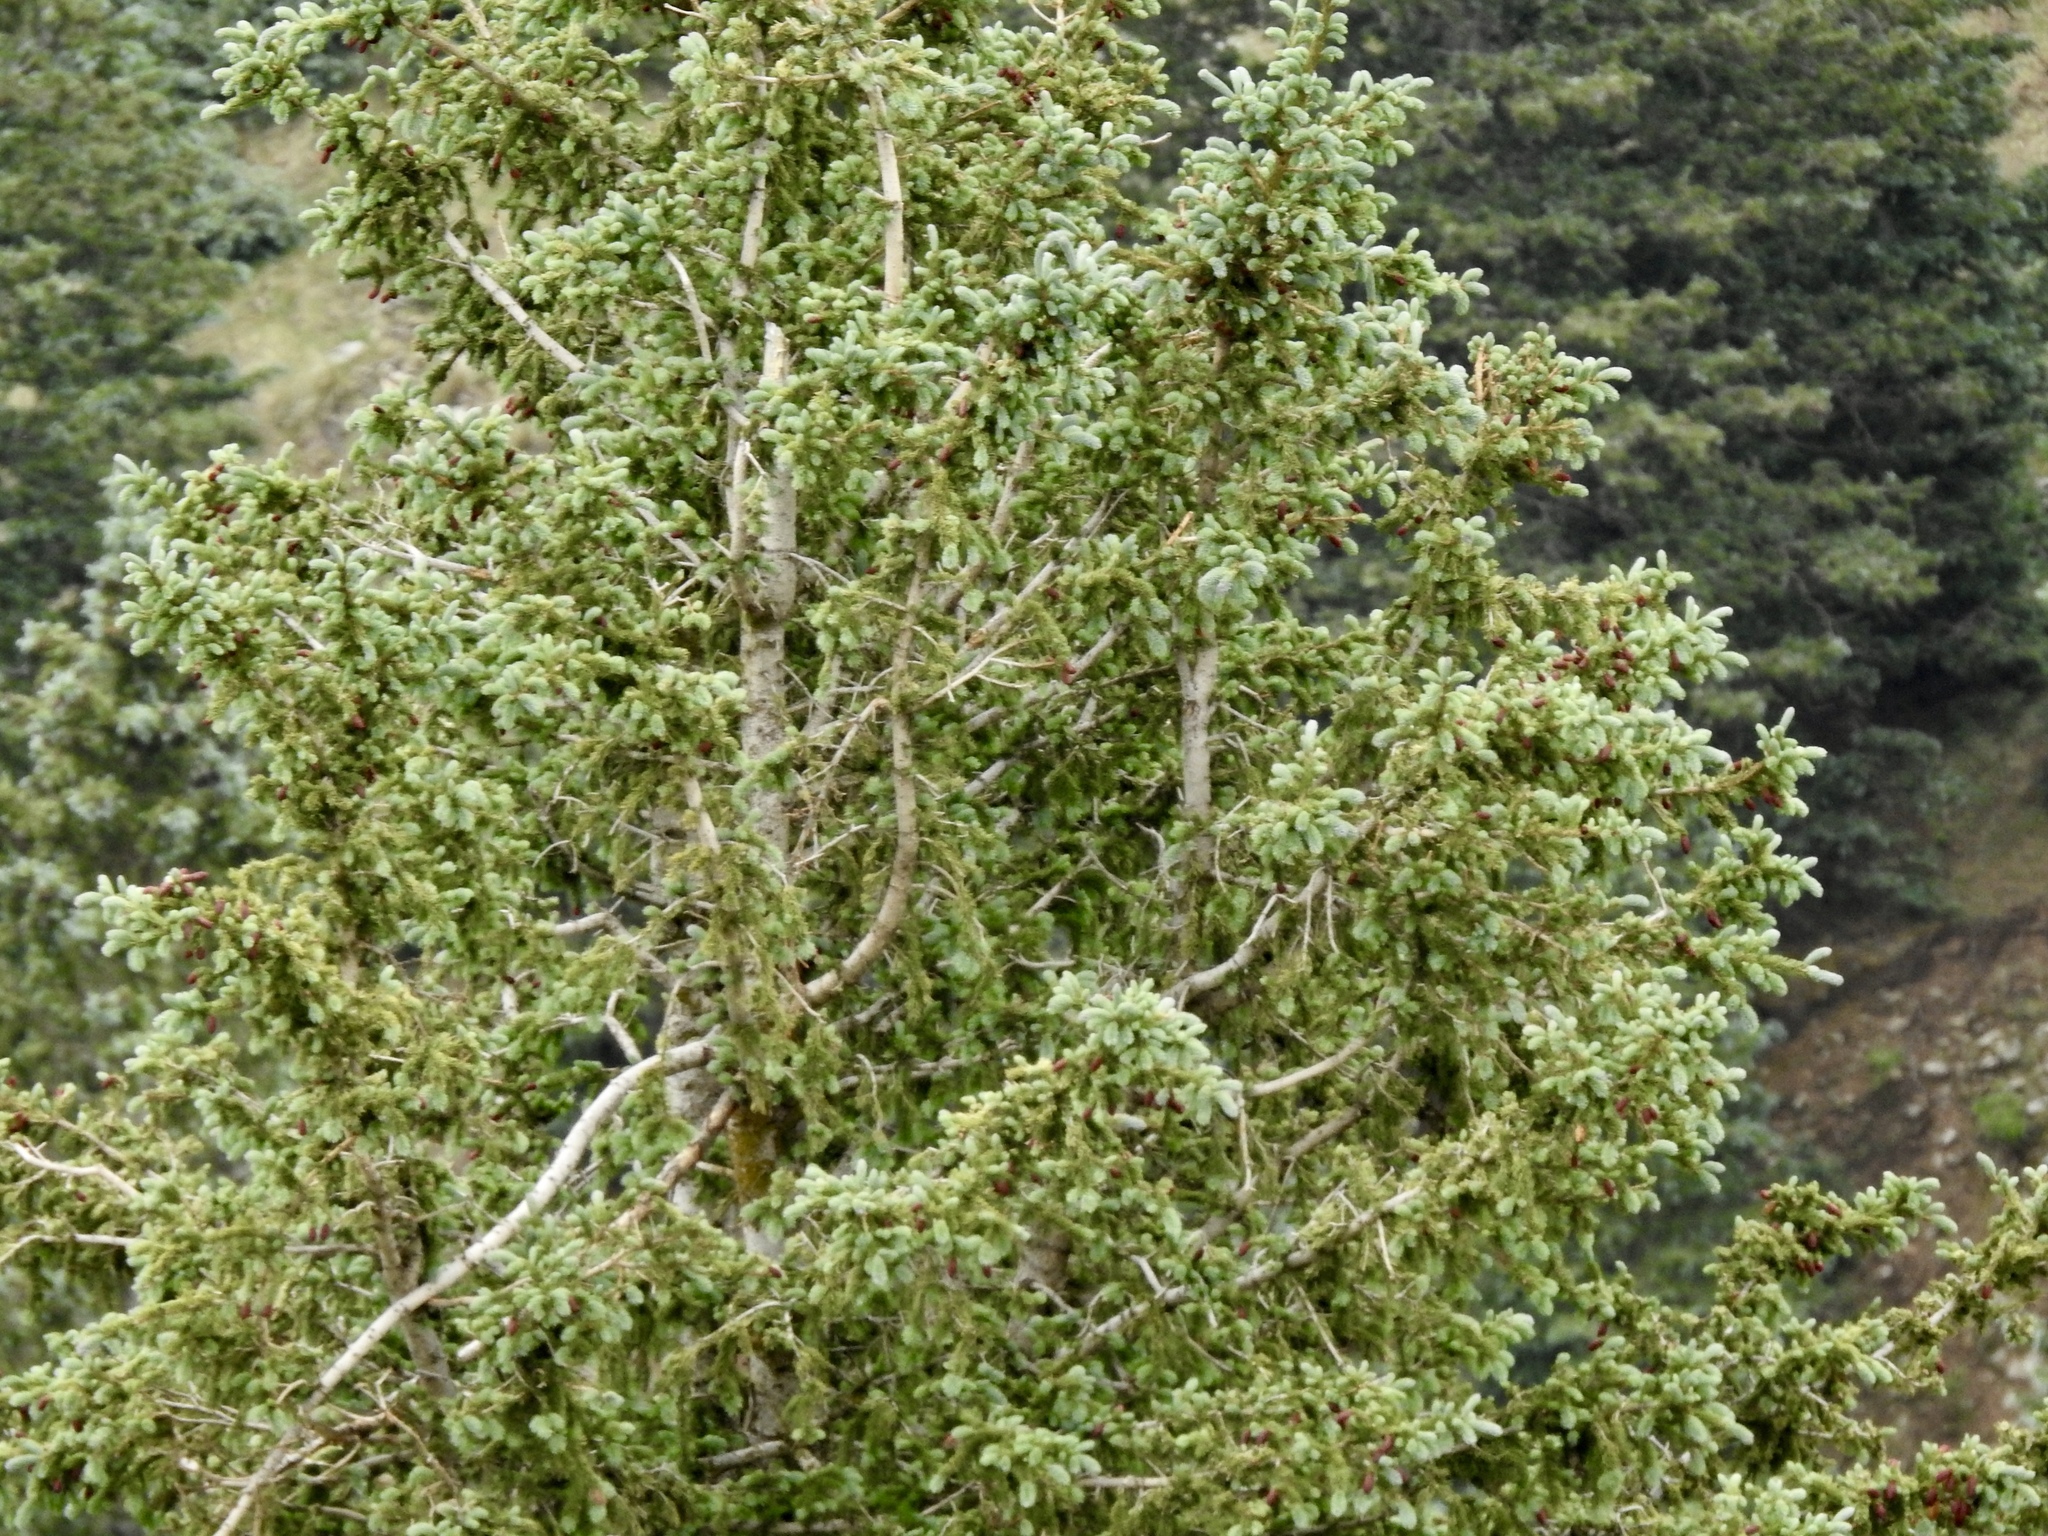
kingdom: Plantae
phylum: Tracheophyta
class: Pinopsida
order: Pinales
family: Pinaceae
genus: Picea
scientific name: Picea engelmannii
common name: Engelmann spruce
